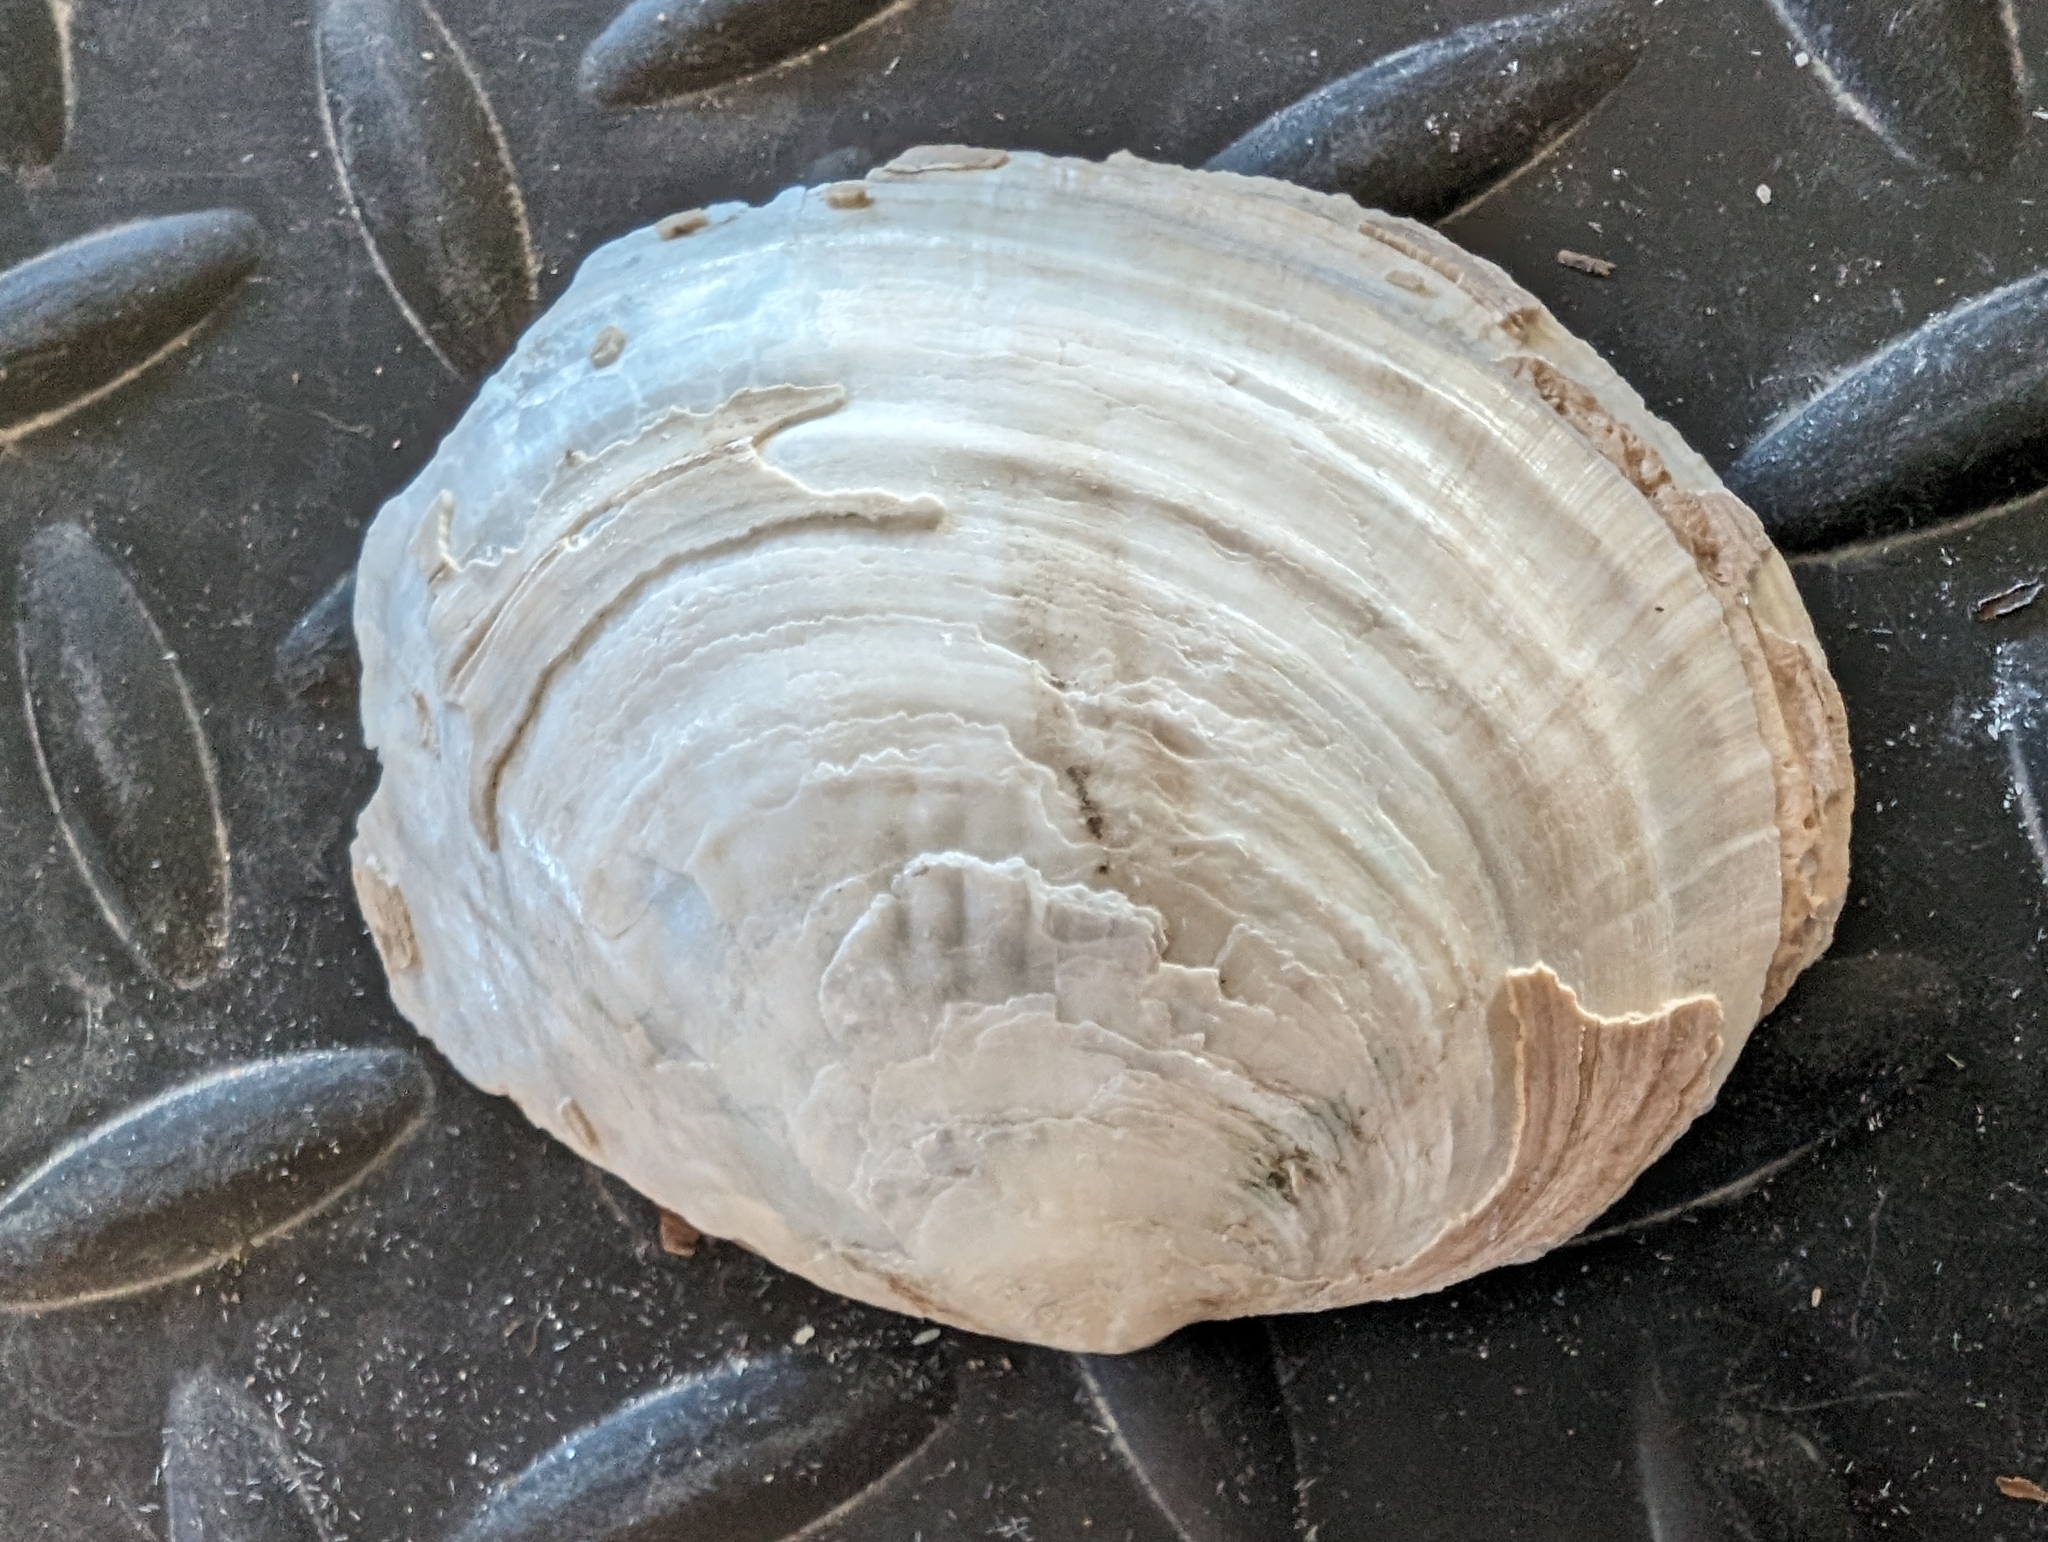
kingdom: Animalia
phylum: Mollusca
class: Bivalvia
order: Unionida
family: Unionidae
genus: Lasmigona
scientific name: Lasmigona complanata
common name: White heelsplitter
